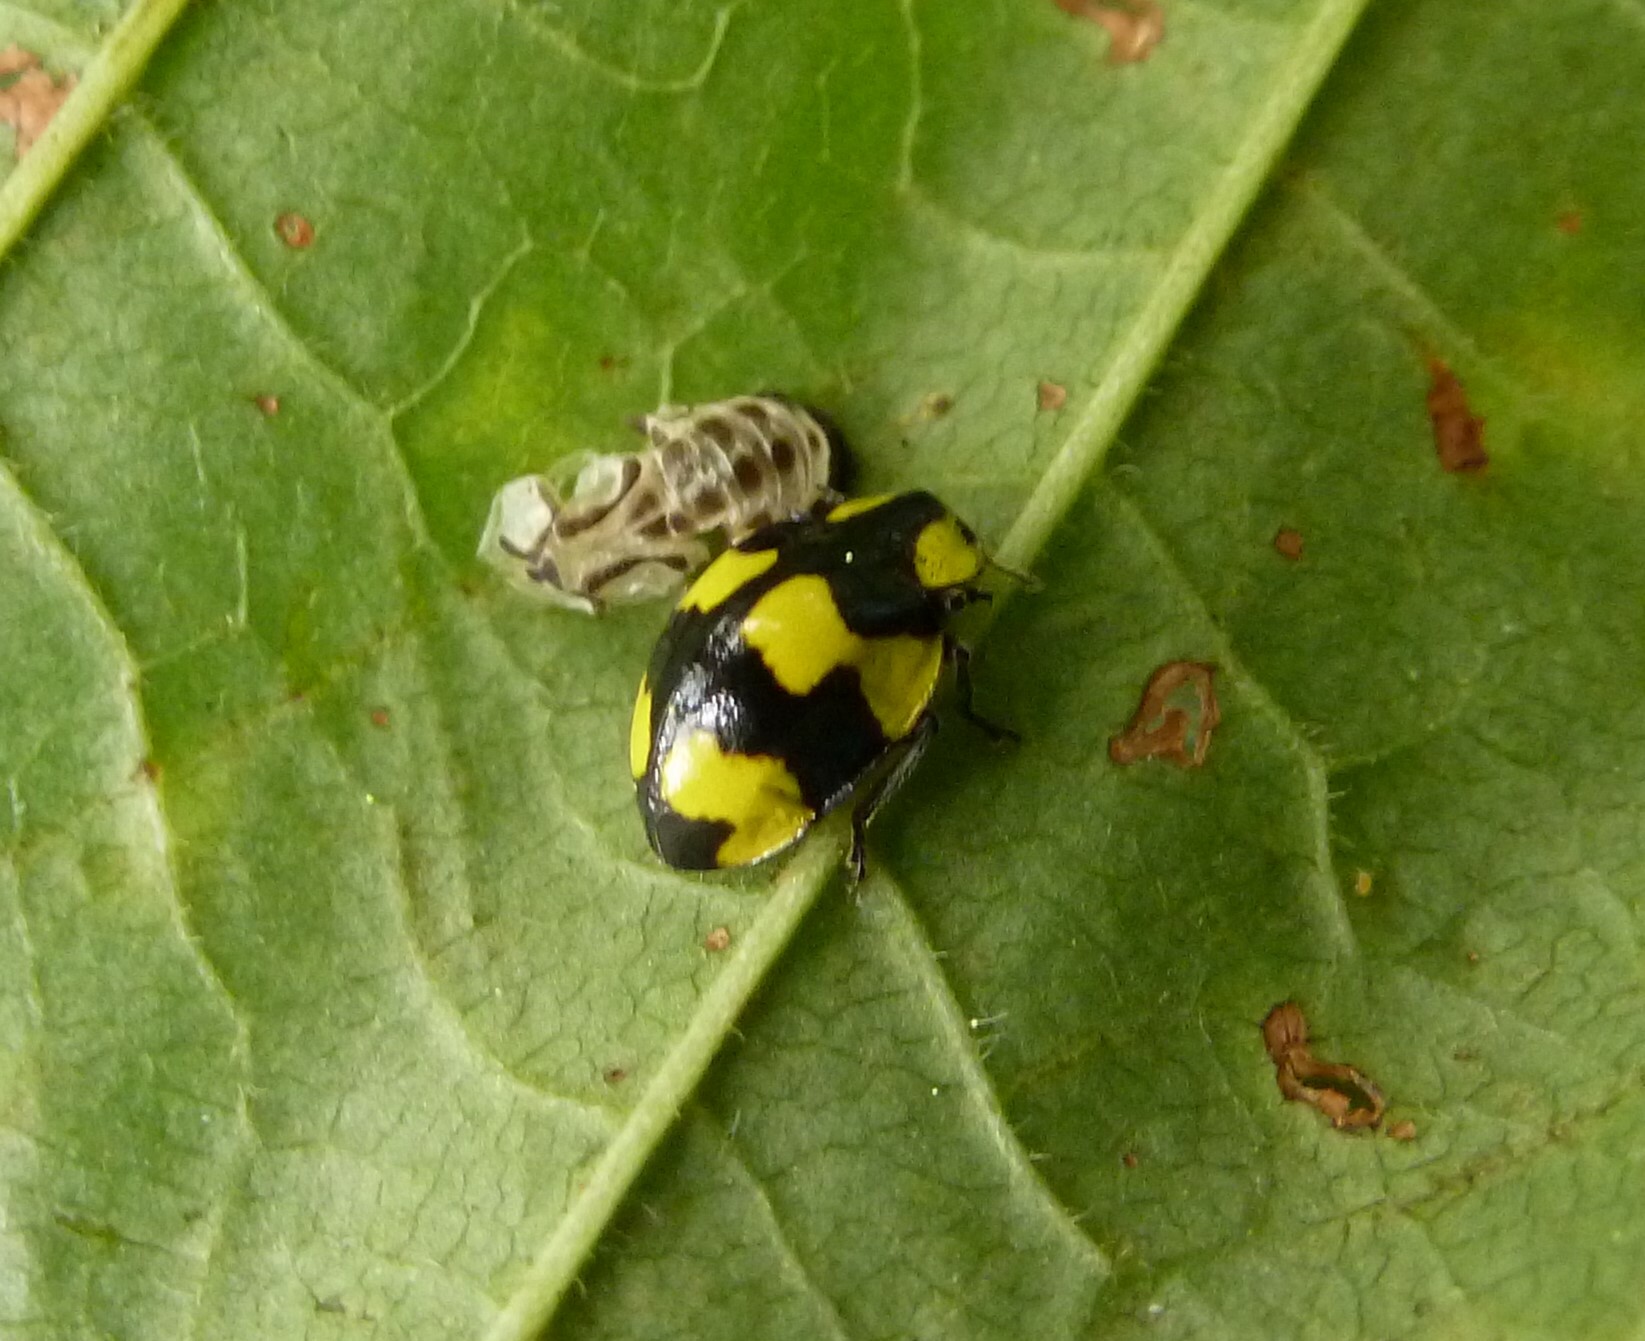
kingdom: Animalia
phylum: Arthropoda
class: Insecta
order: Coleoptera
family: Coccinellidae
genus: Illeis
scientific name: Illeis galbula
